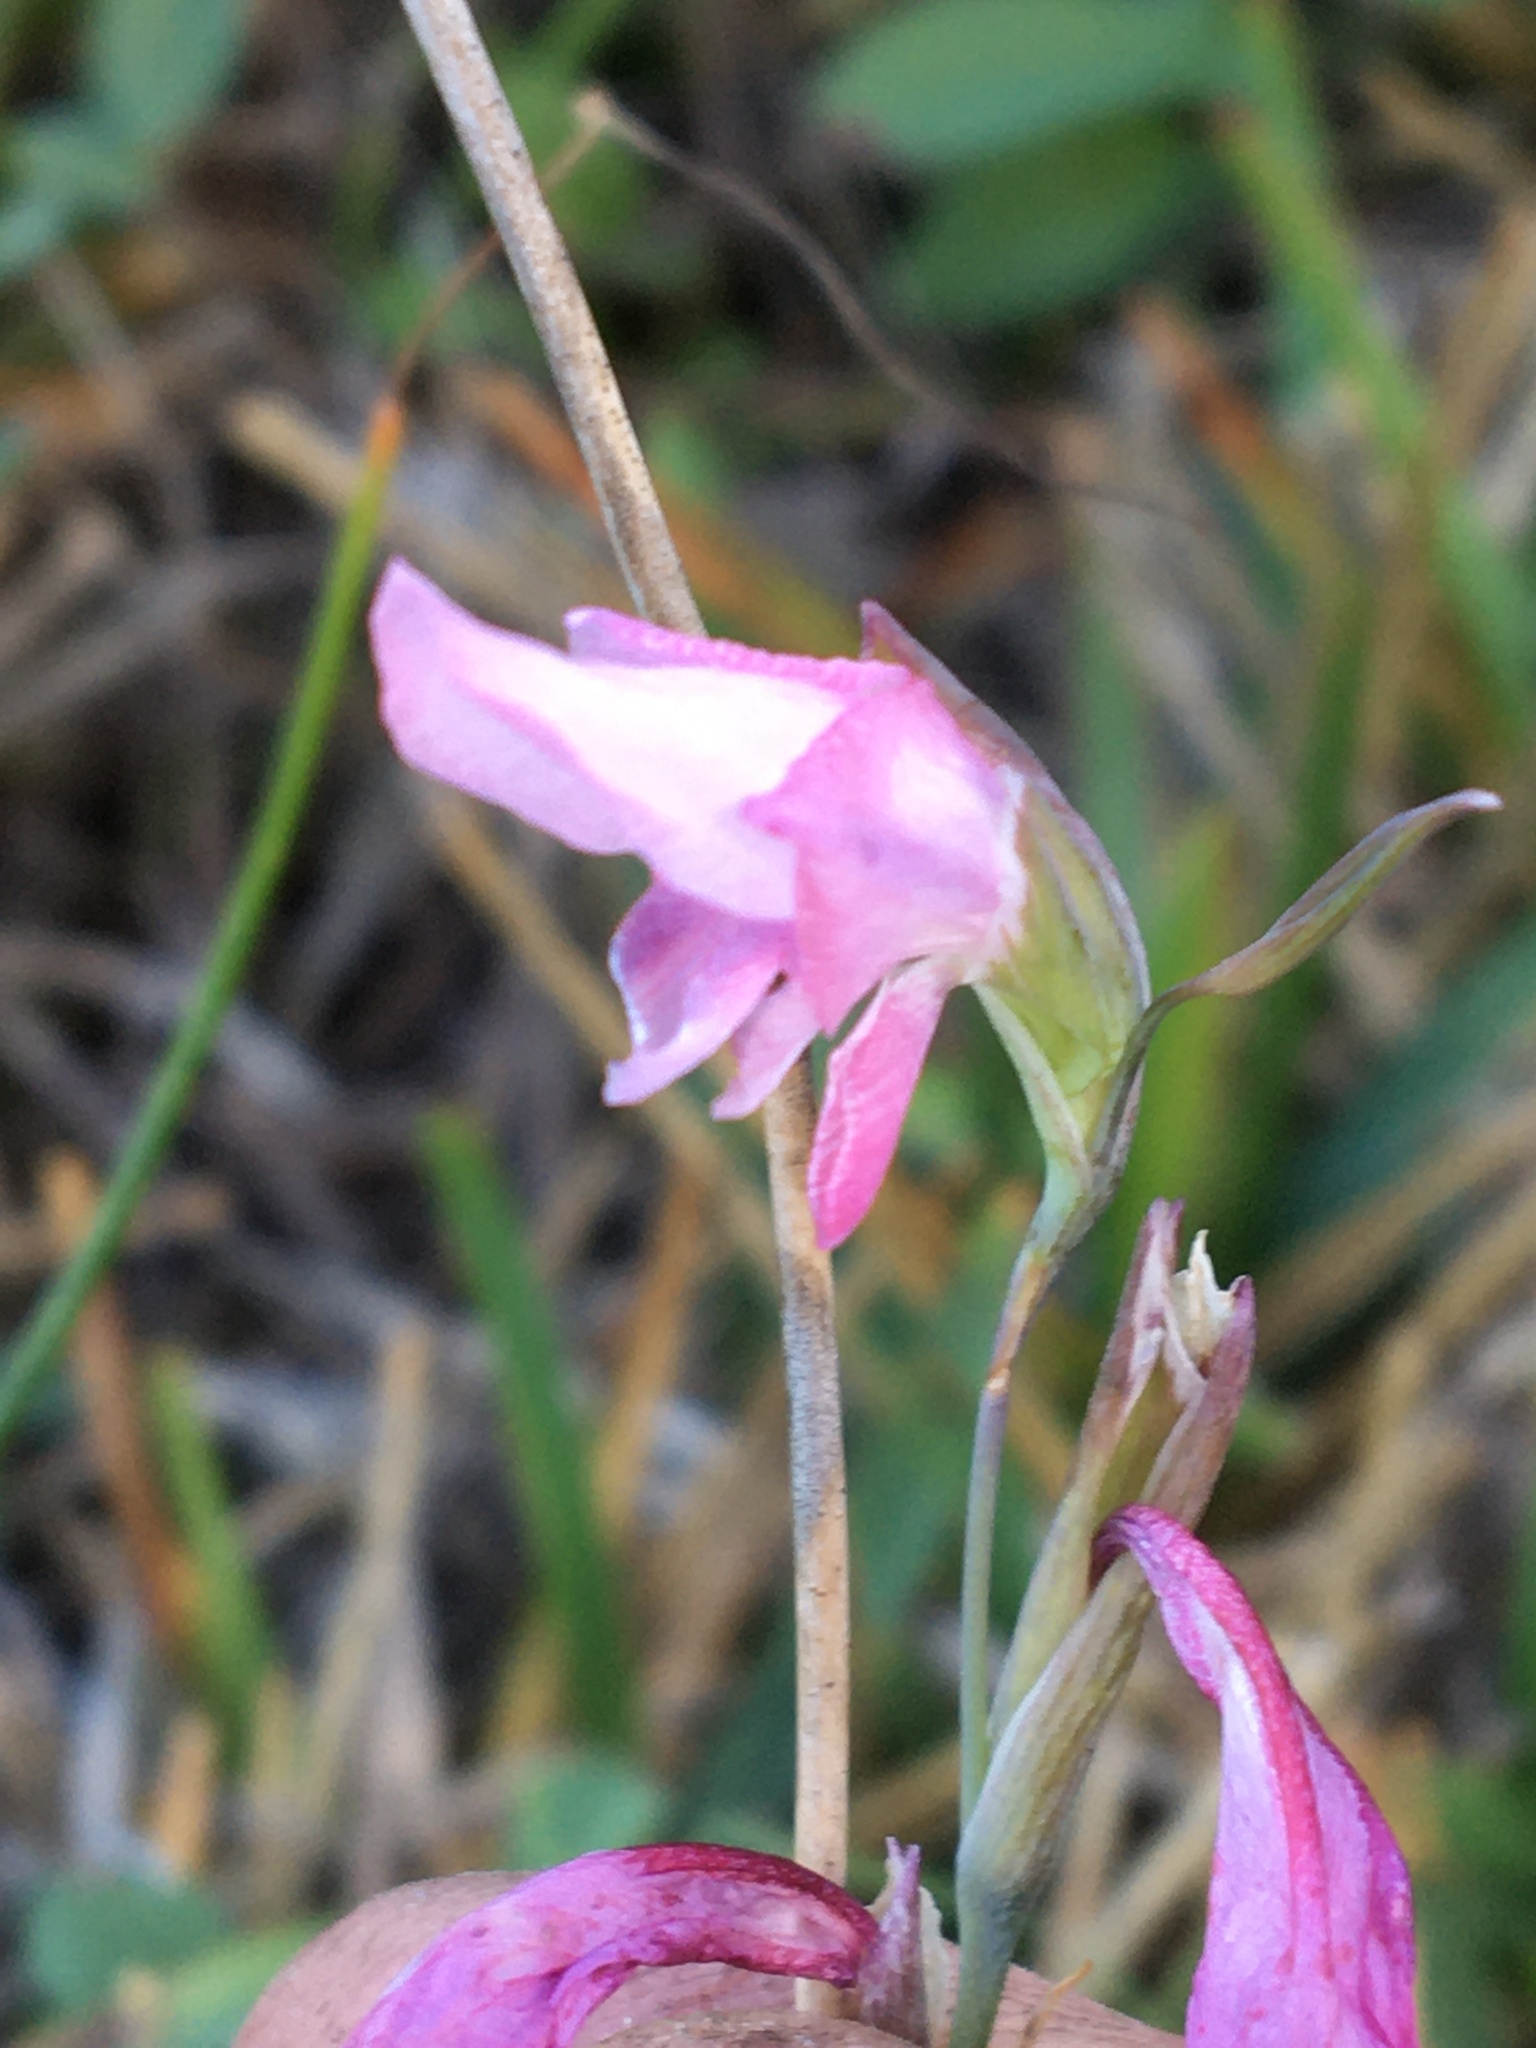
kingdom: Plantae
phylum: Tracheophyta
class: Liliopsida
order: Asparagales
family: Iridaceae
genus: Gladiolus
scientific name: Gladiolus brevifolius
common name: March pypie
